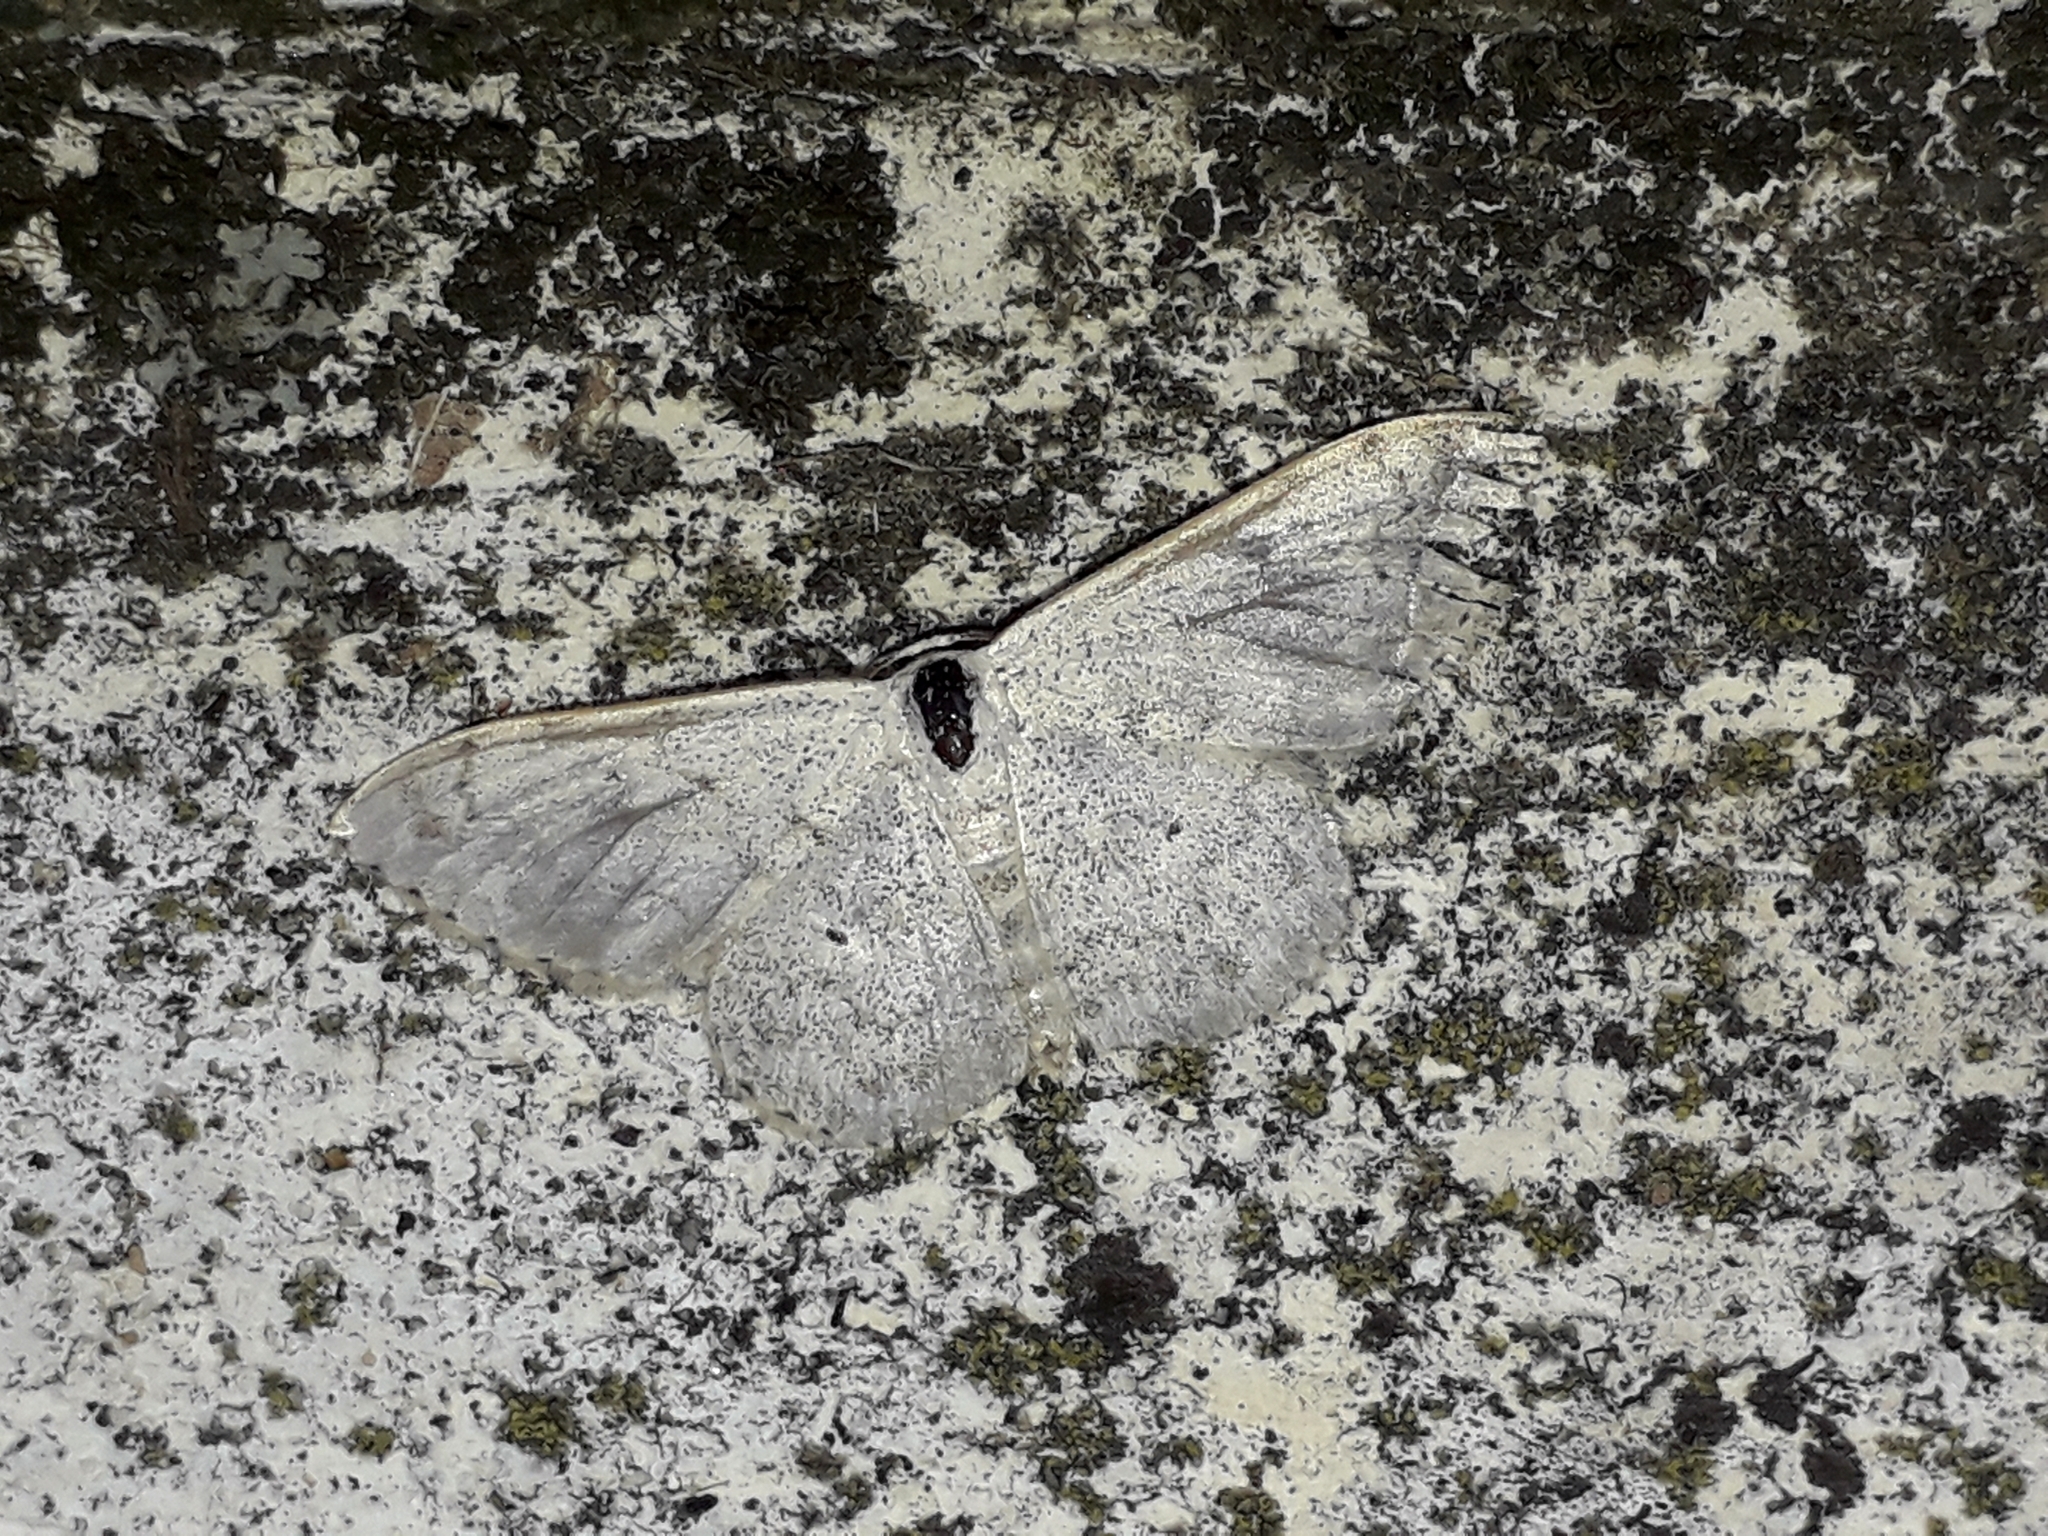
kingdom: Animalia
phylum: Arthropoda
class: Insecta
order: Lepidoptera
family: Geometridae
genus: Scopula
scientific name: Scopula marginepunctata
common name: Mullein wave
